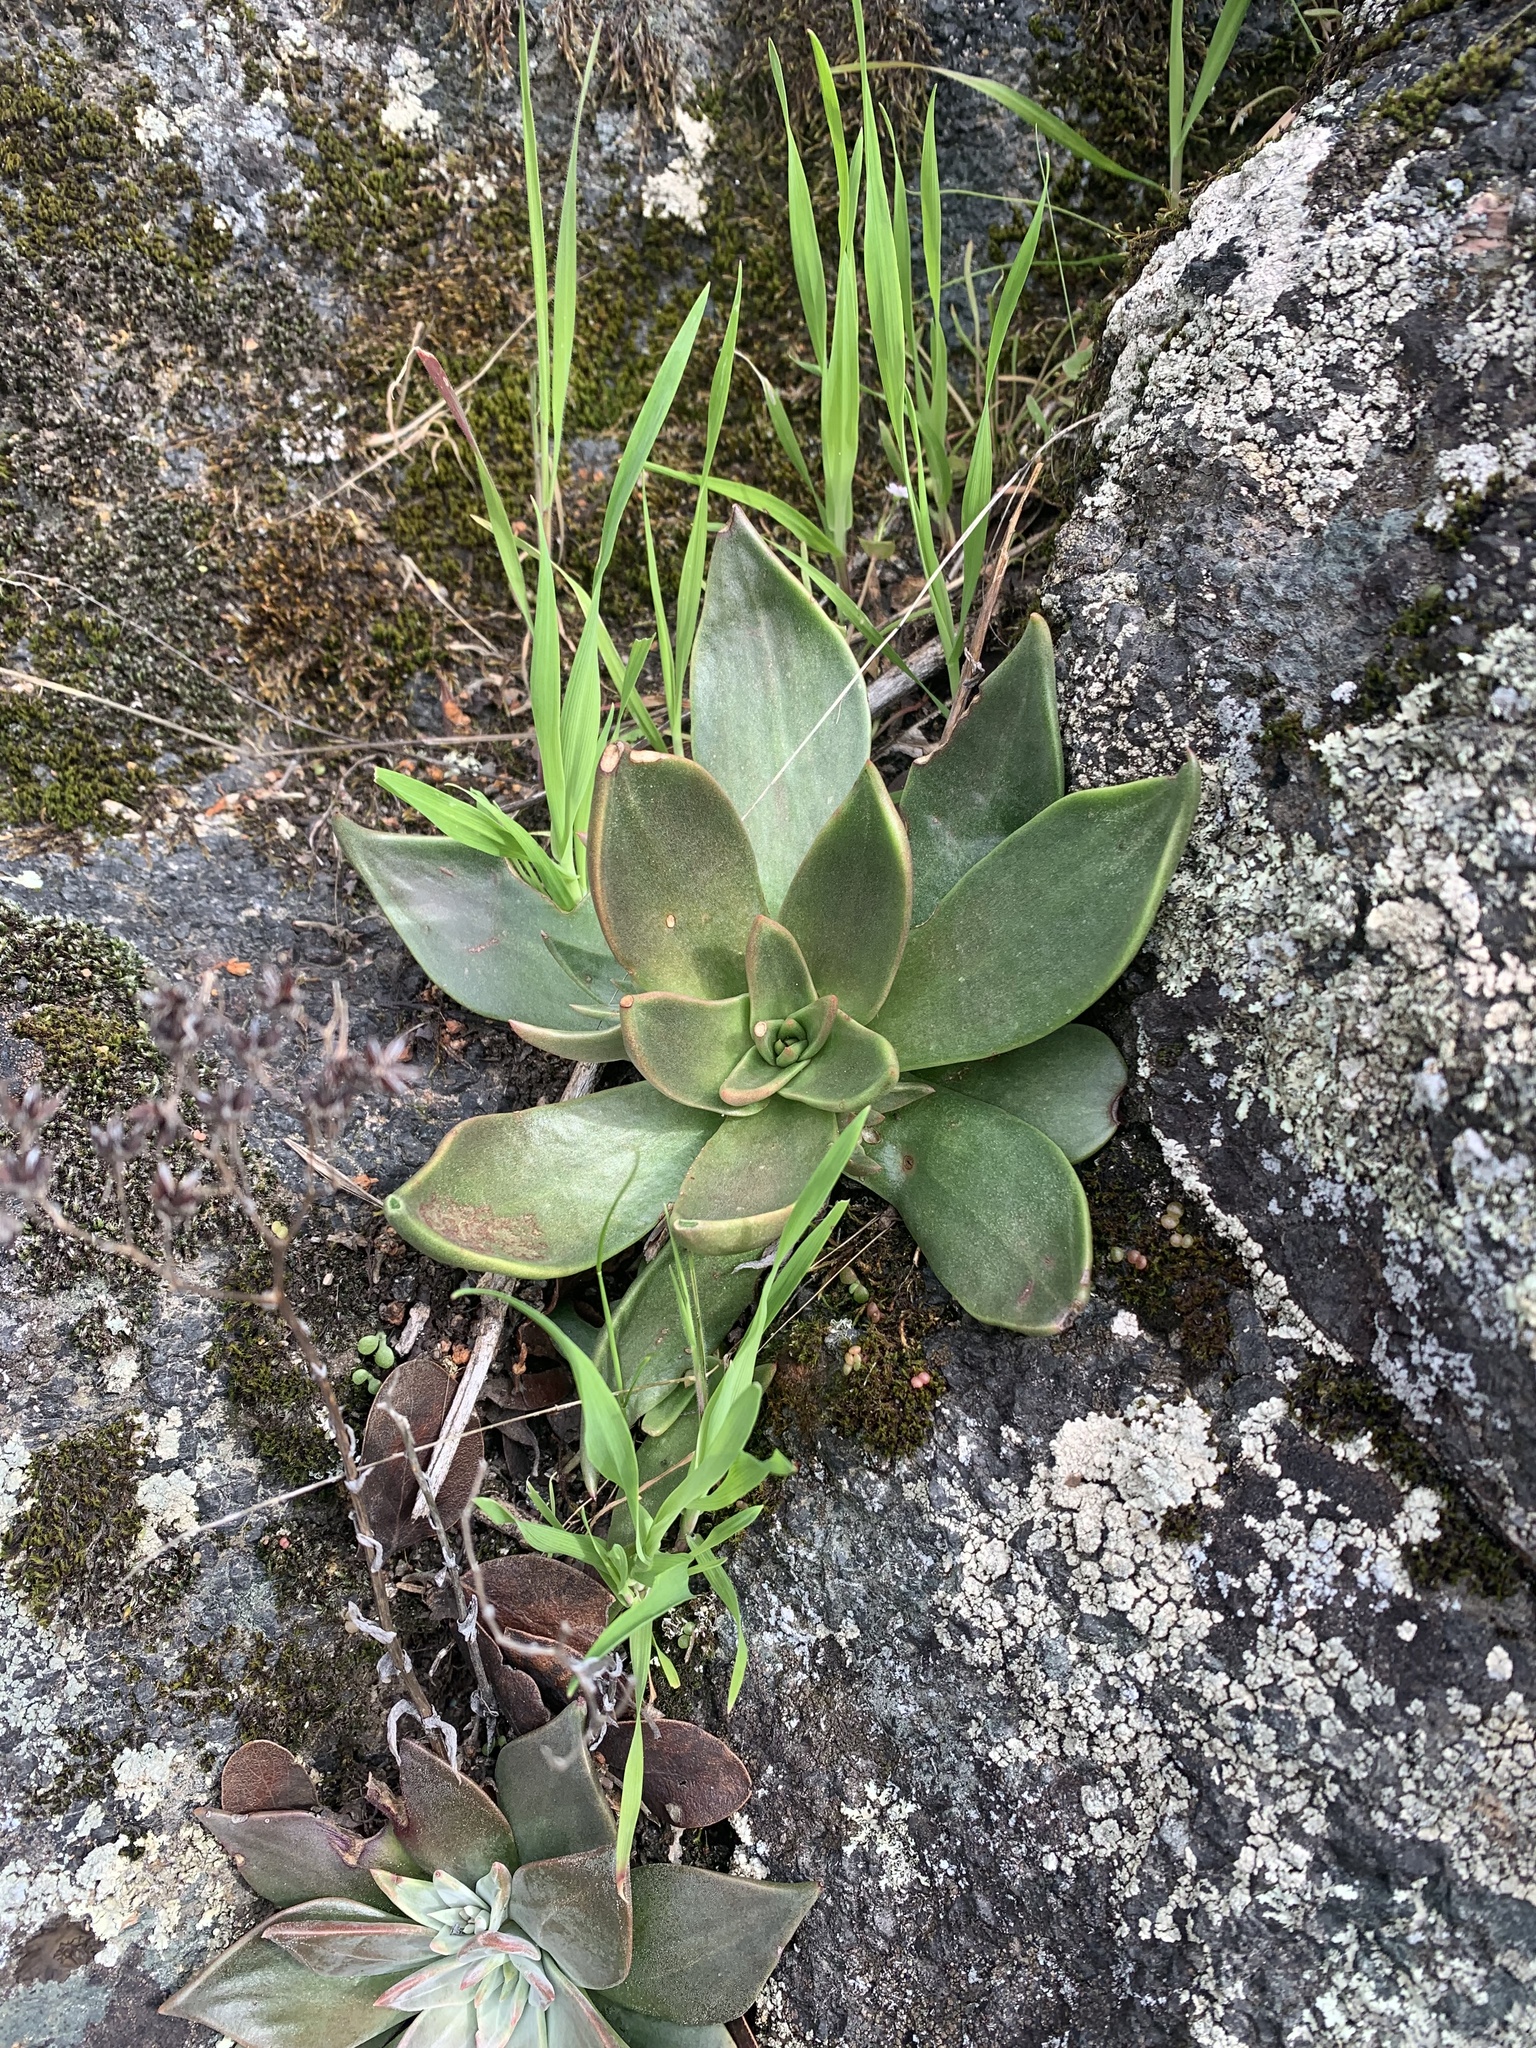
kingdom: Plantae
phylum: Tracheophyta
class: Magnoliopsida
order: Saxifragales
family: Crassulaceae
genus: Dudleya
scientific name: Dudleya cymosa
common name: Canyon dudleya
